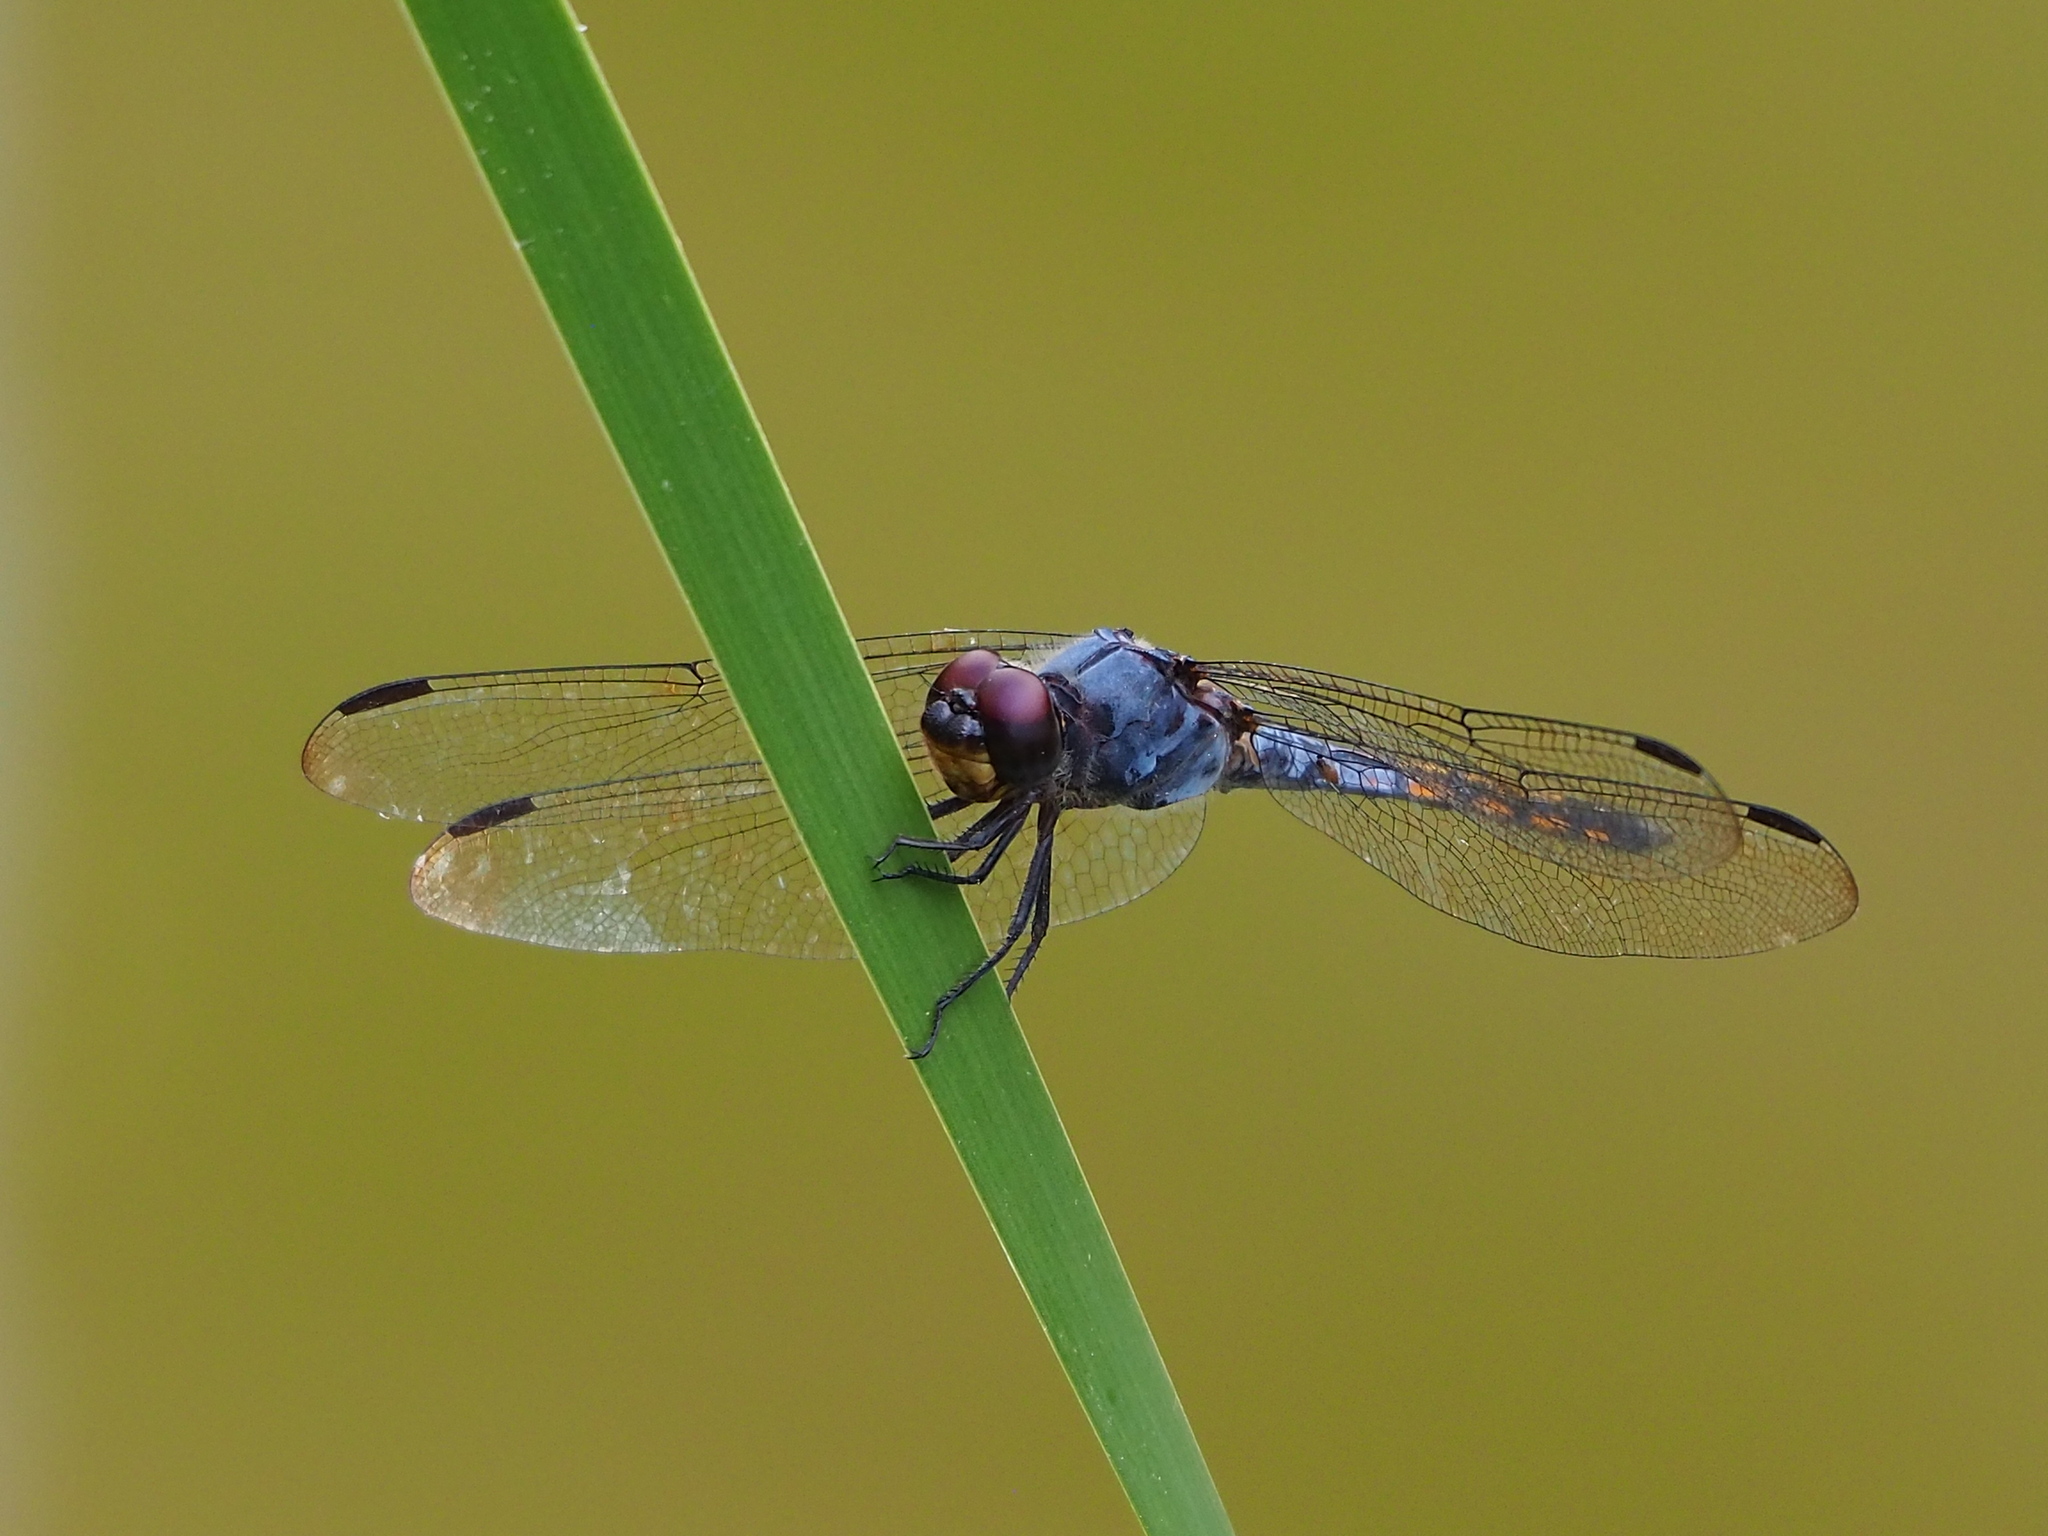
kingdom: Animalia
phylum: Arthropoda
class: Insecta
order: Odonata
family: Libellulidae
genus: Potamarcha
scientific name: Potamarcha congener
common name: Blue chaser
